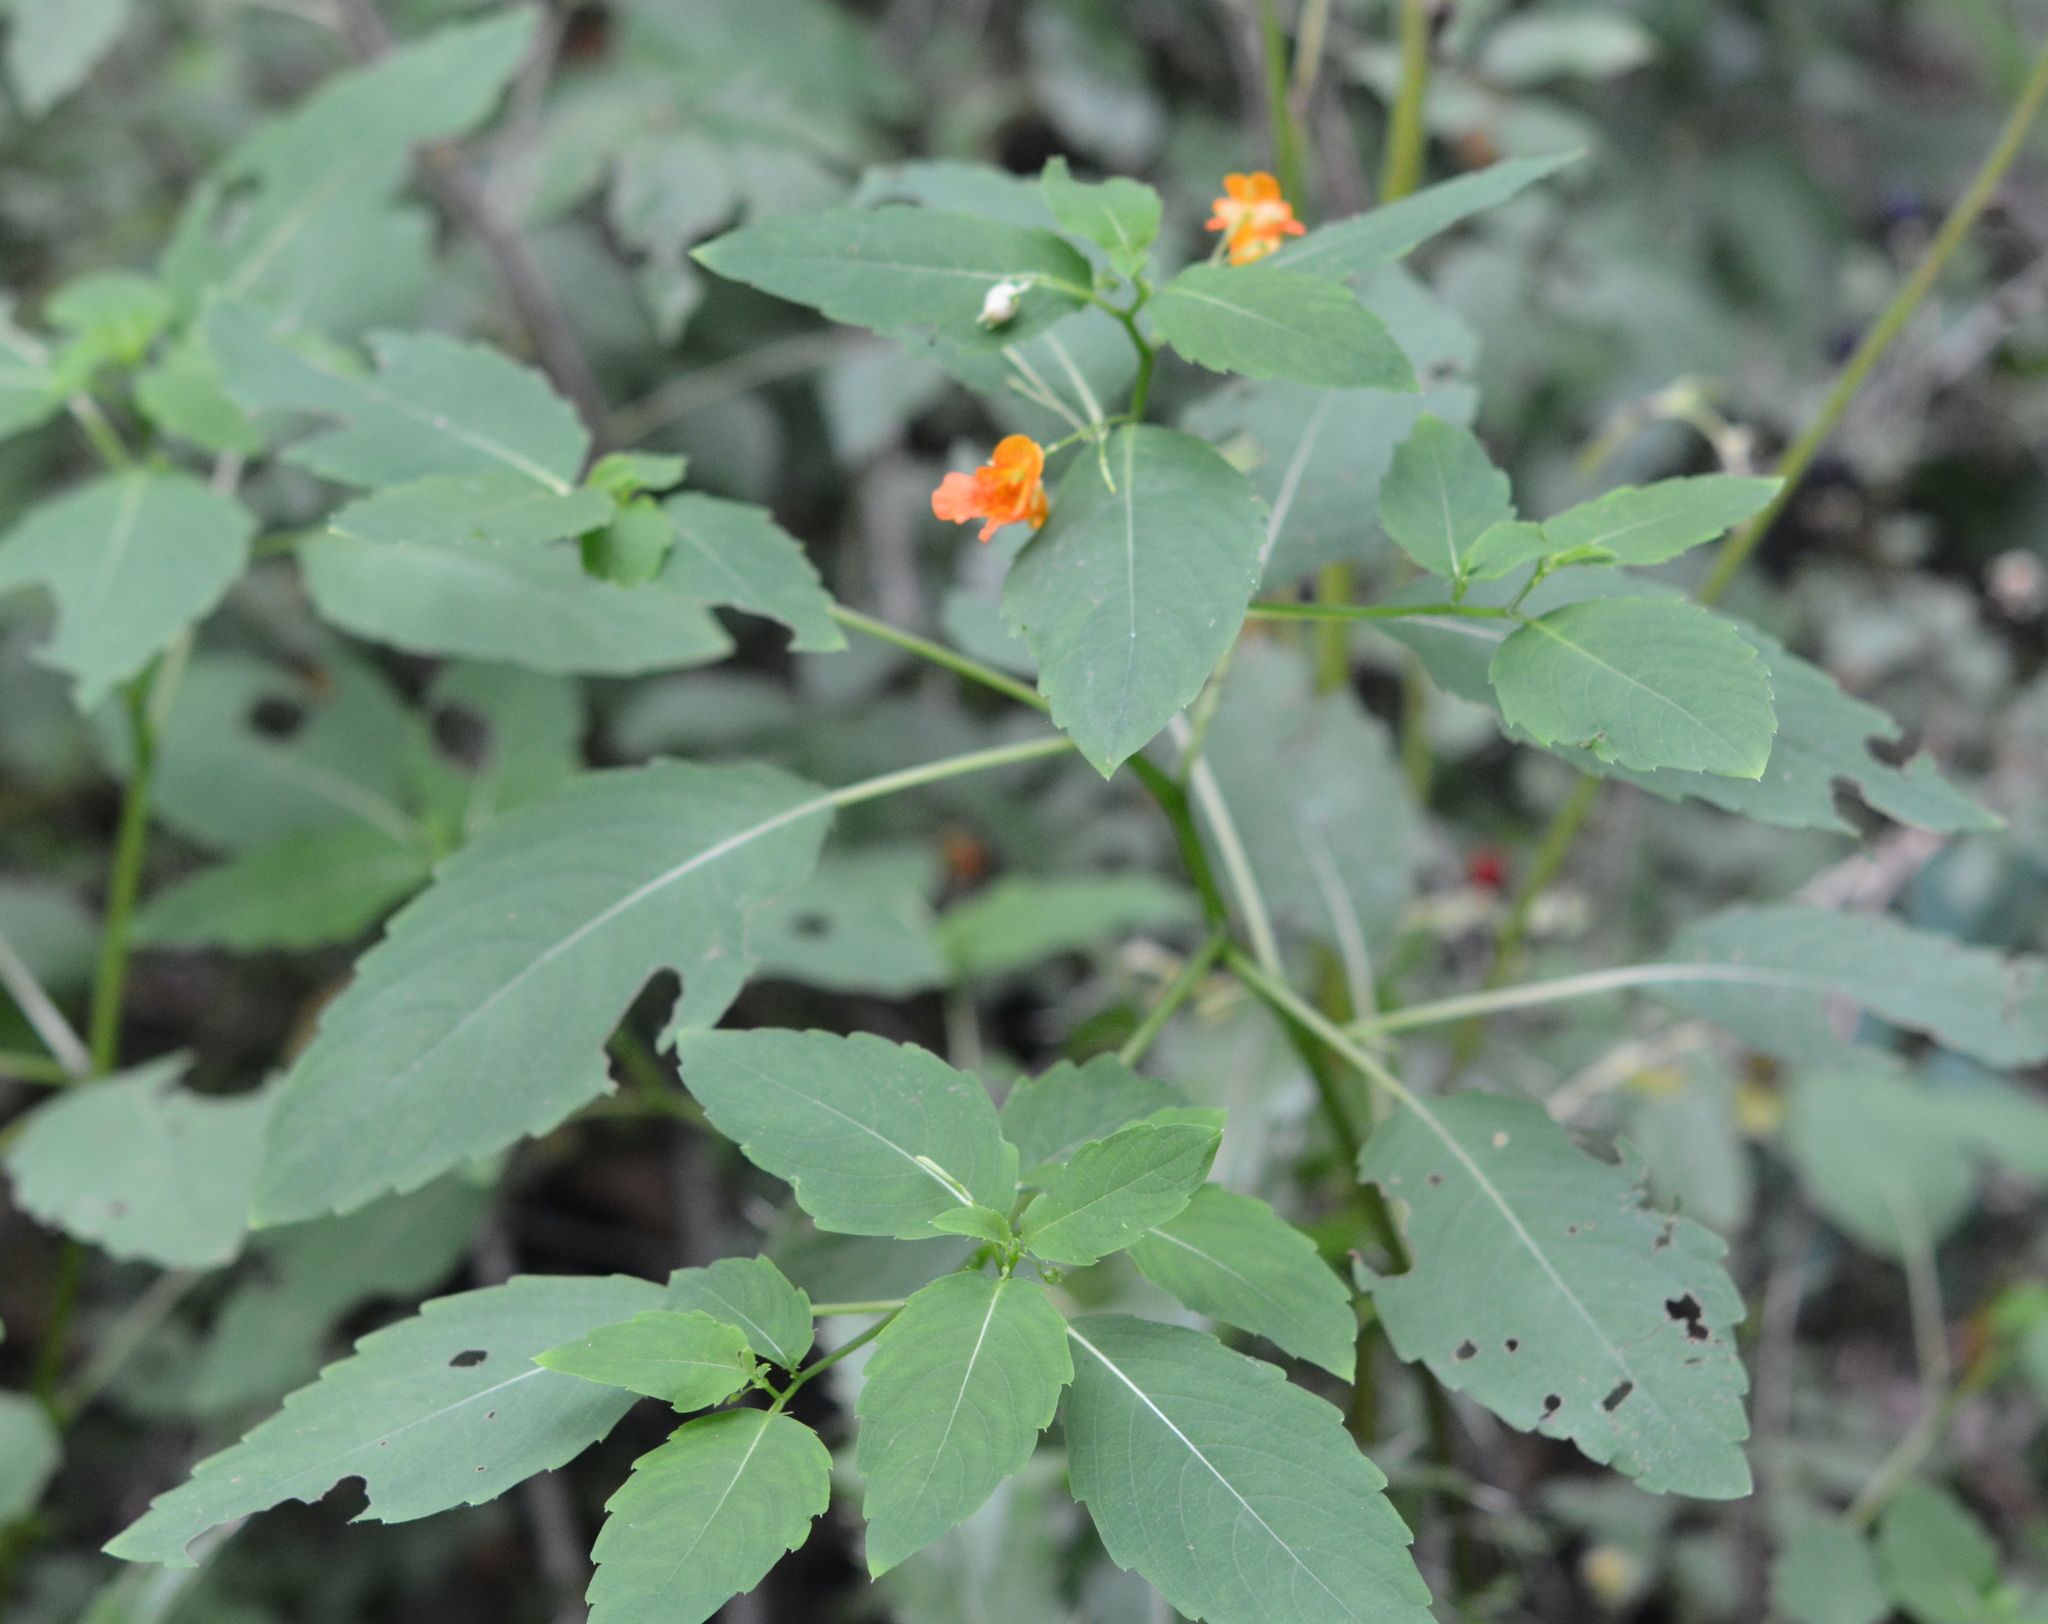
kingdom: Plantae
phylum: Tracheophyta
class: Magnoliopsida
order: Ericales
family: Balsaminaceae
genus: Impatiens
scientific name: Impatiens capensis
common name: Orange balsam
